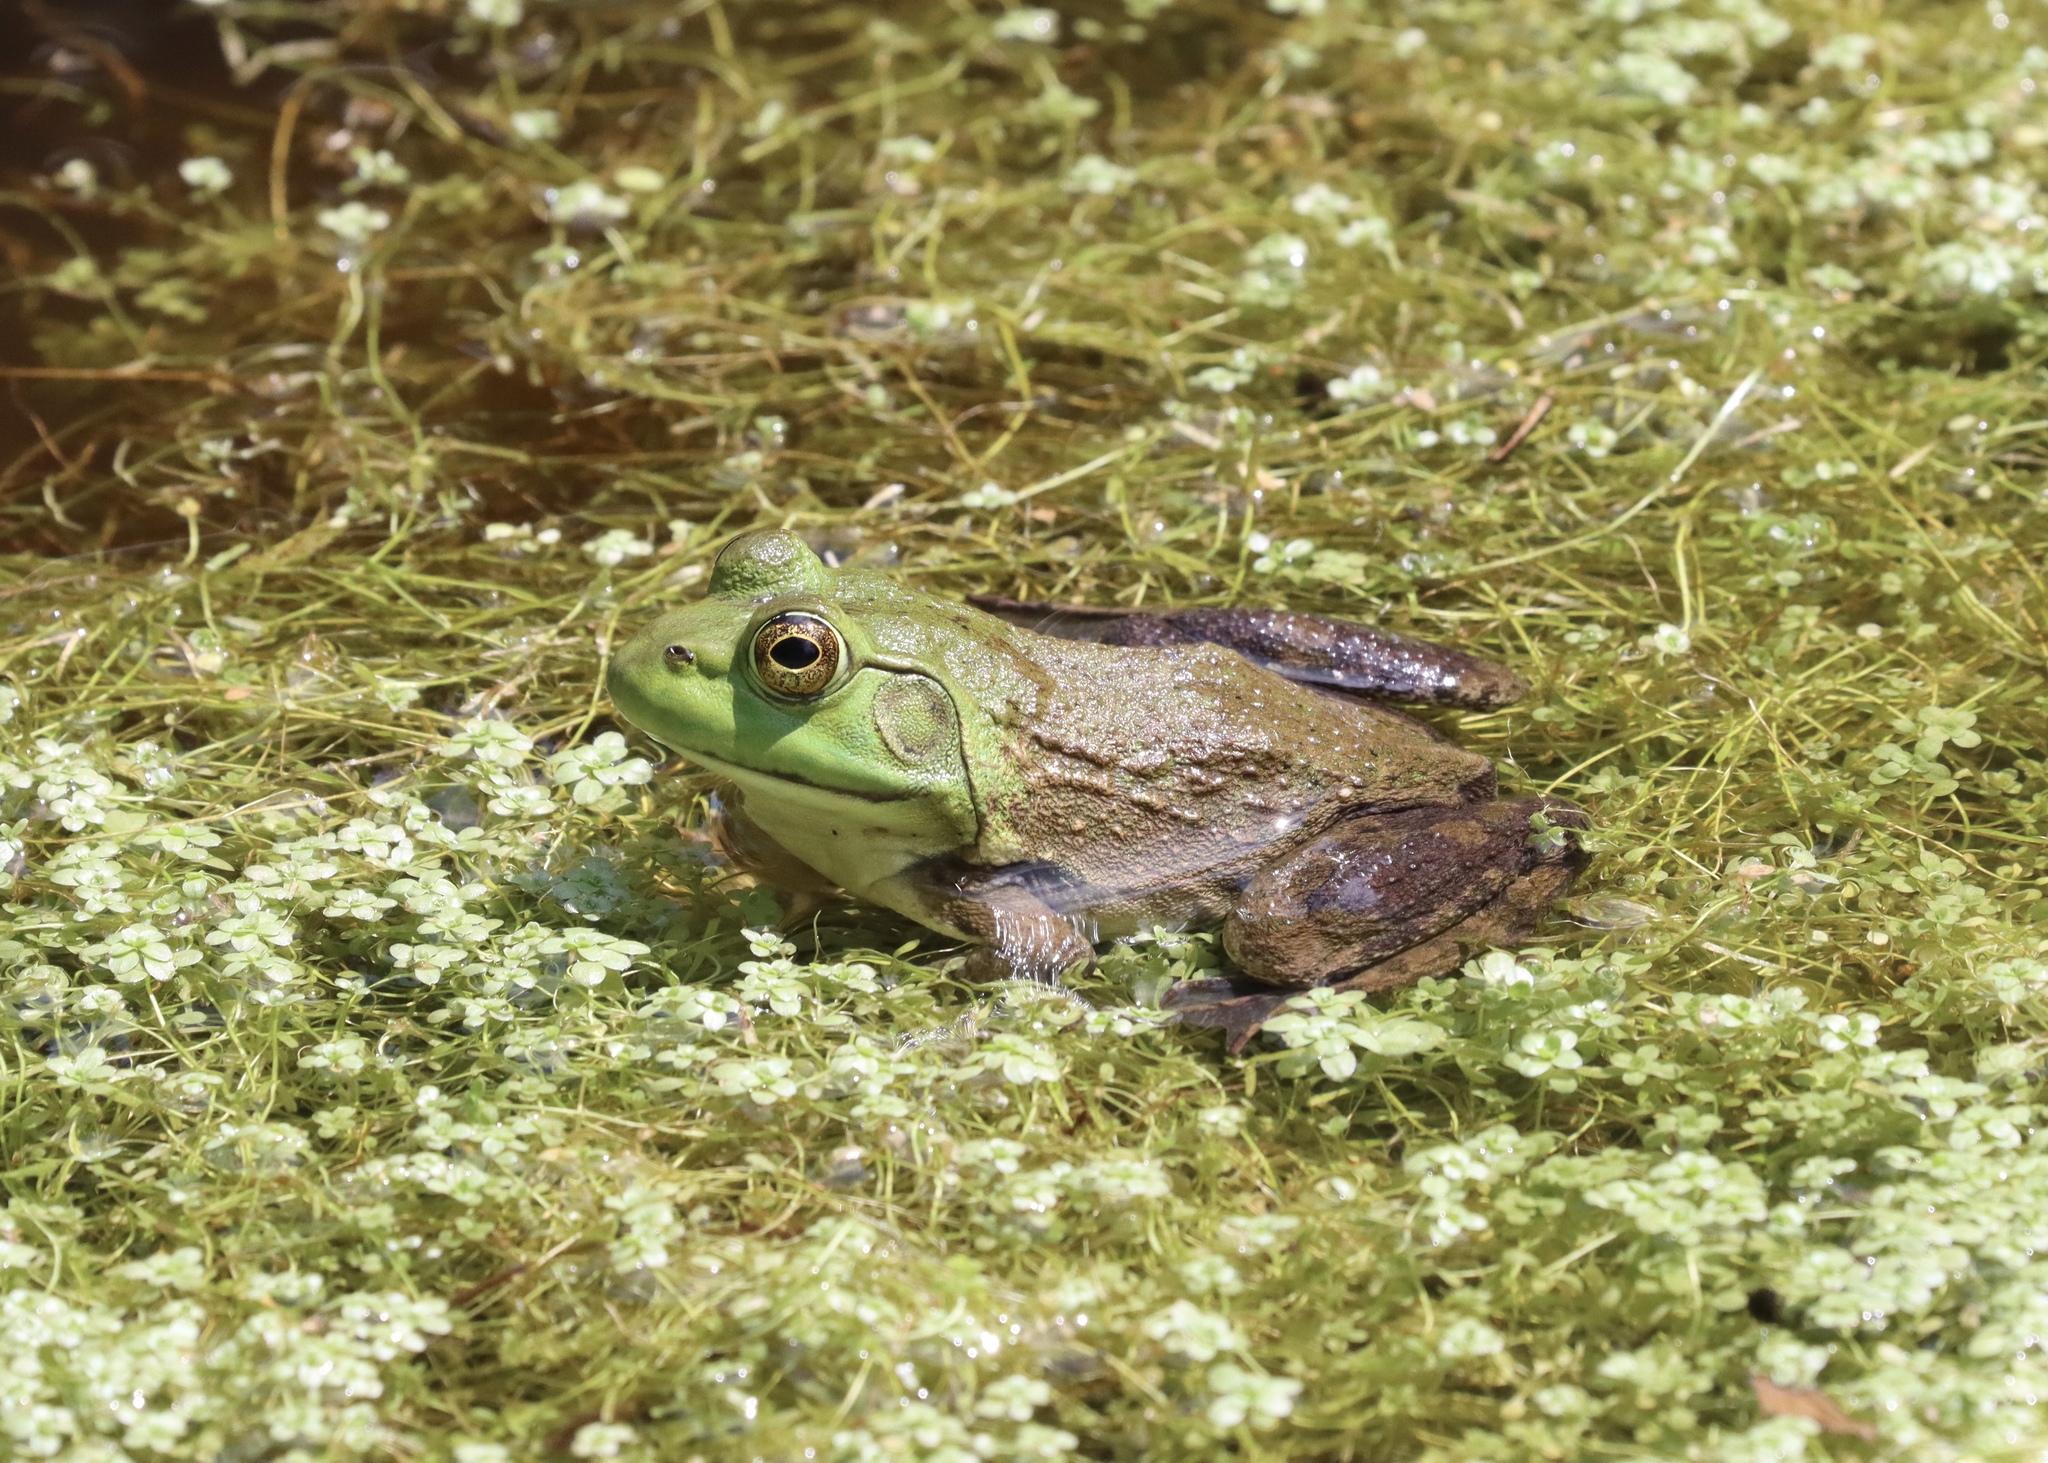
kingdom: Animalia
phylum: Chordata
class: Amphibia
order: Anura
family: Ranidae
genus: Lithobates
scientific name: Lithobates catesbeianus
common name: American bullfrog
